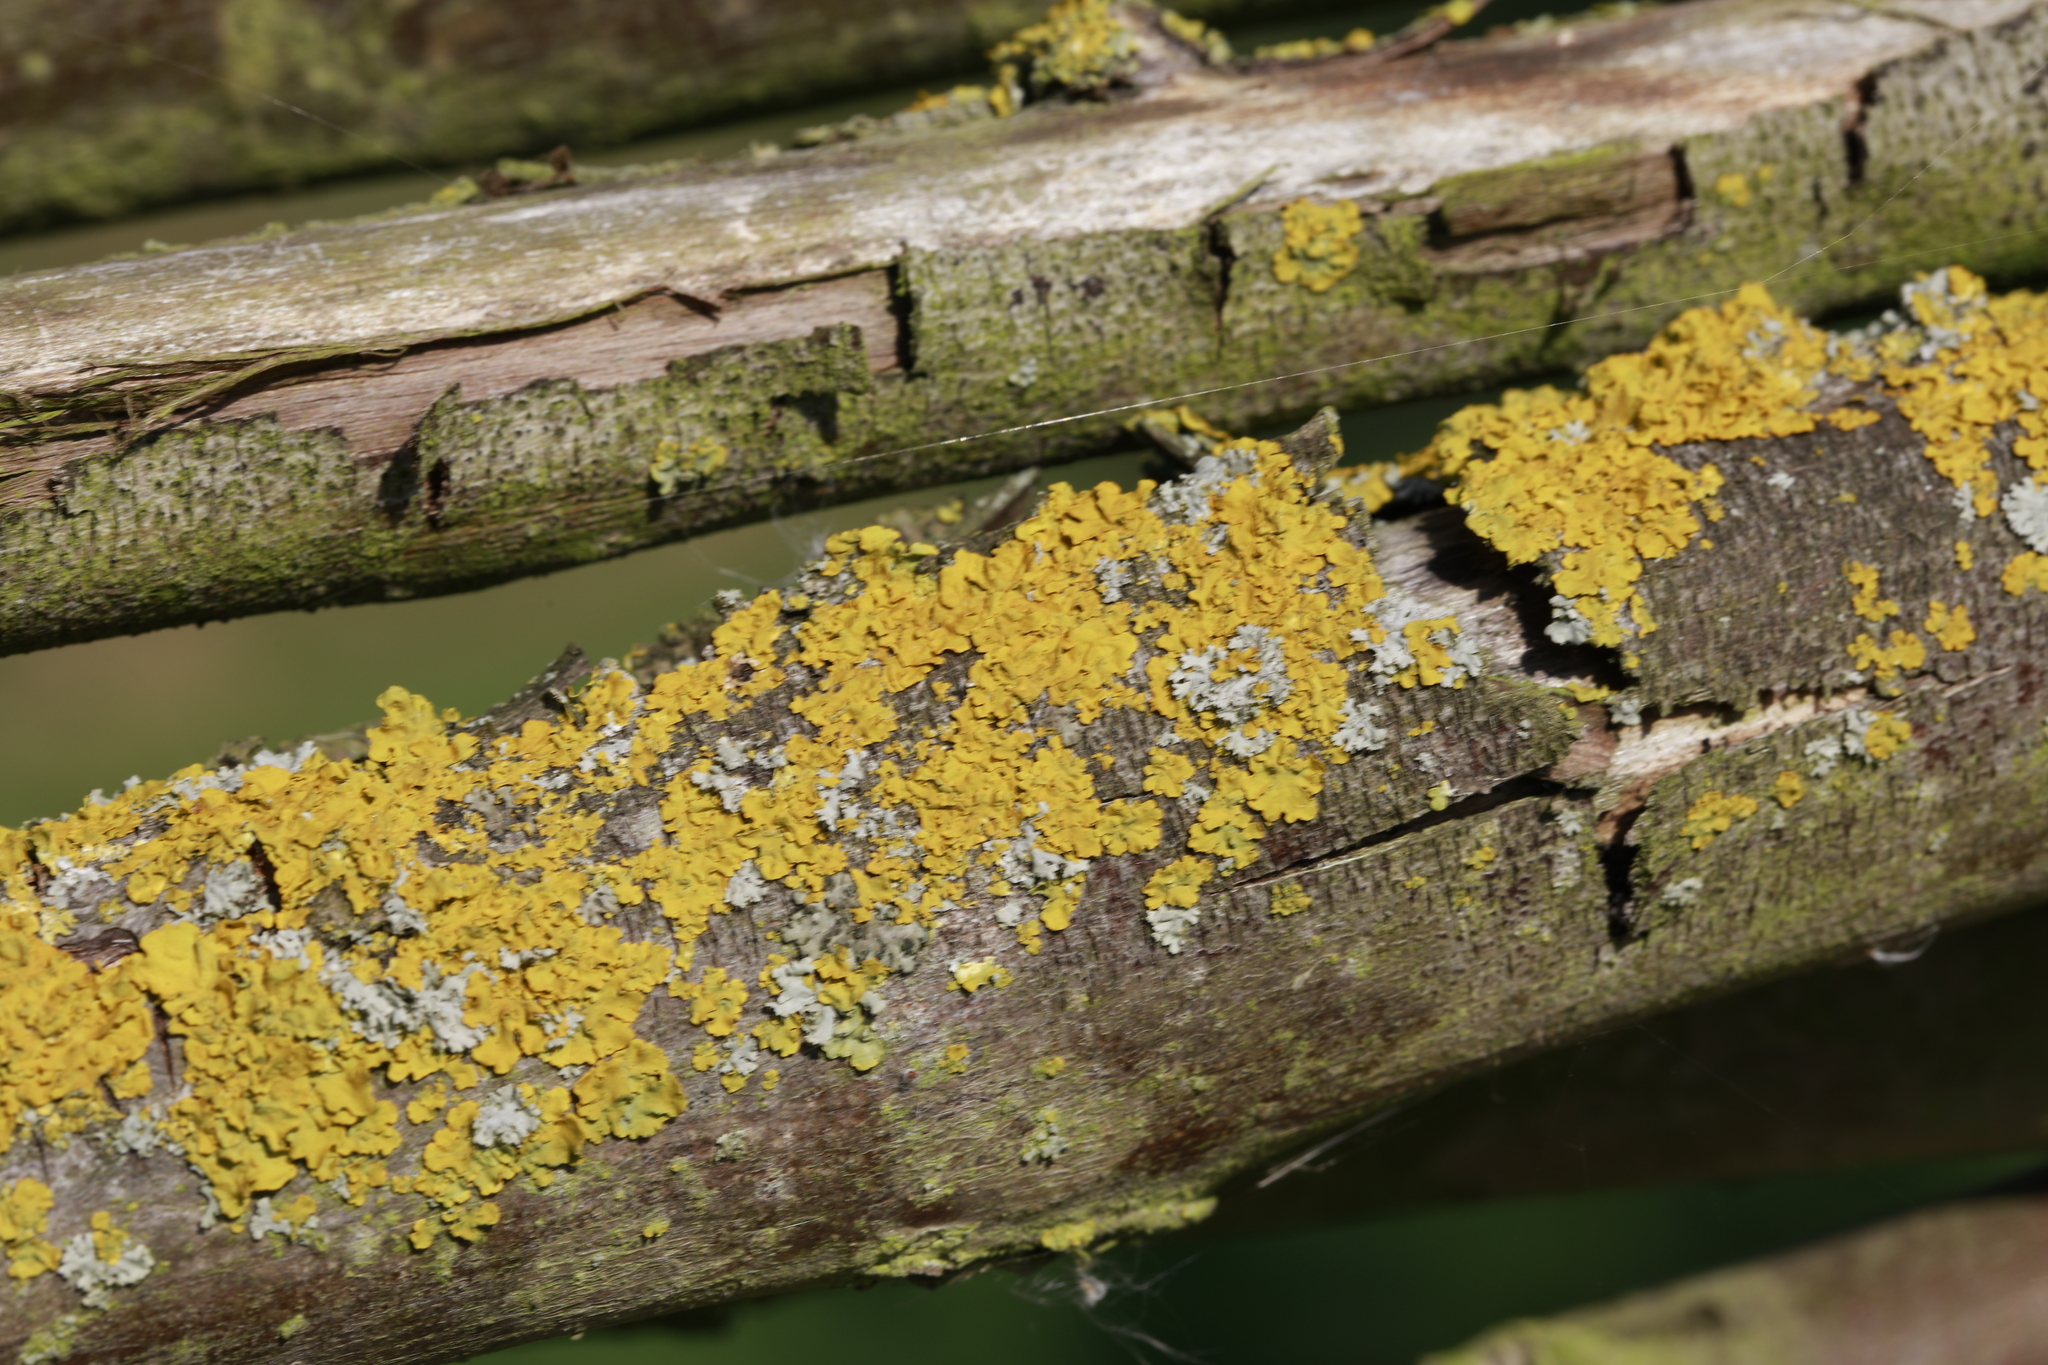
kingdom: Fungi
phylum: Ascomycota
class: Lecanoromycetes
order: Teloschistales
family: Teloschistaceae
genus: Xanthoria
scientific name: Xanthoria parietina
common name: Common orange lichen
